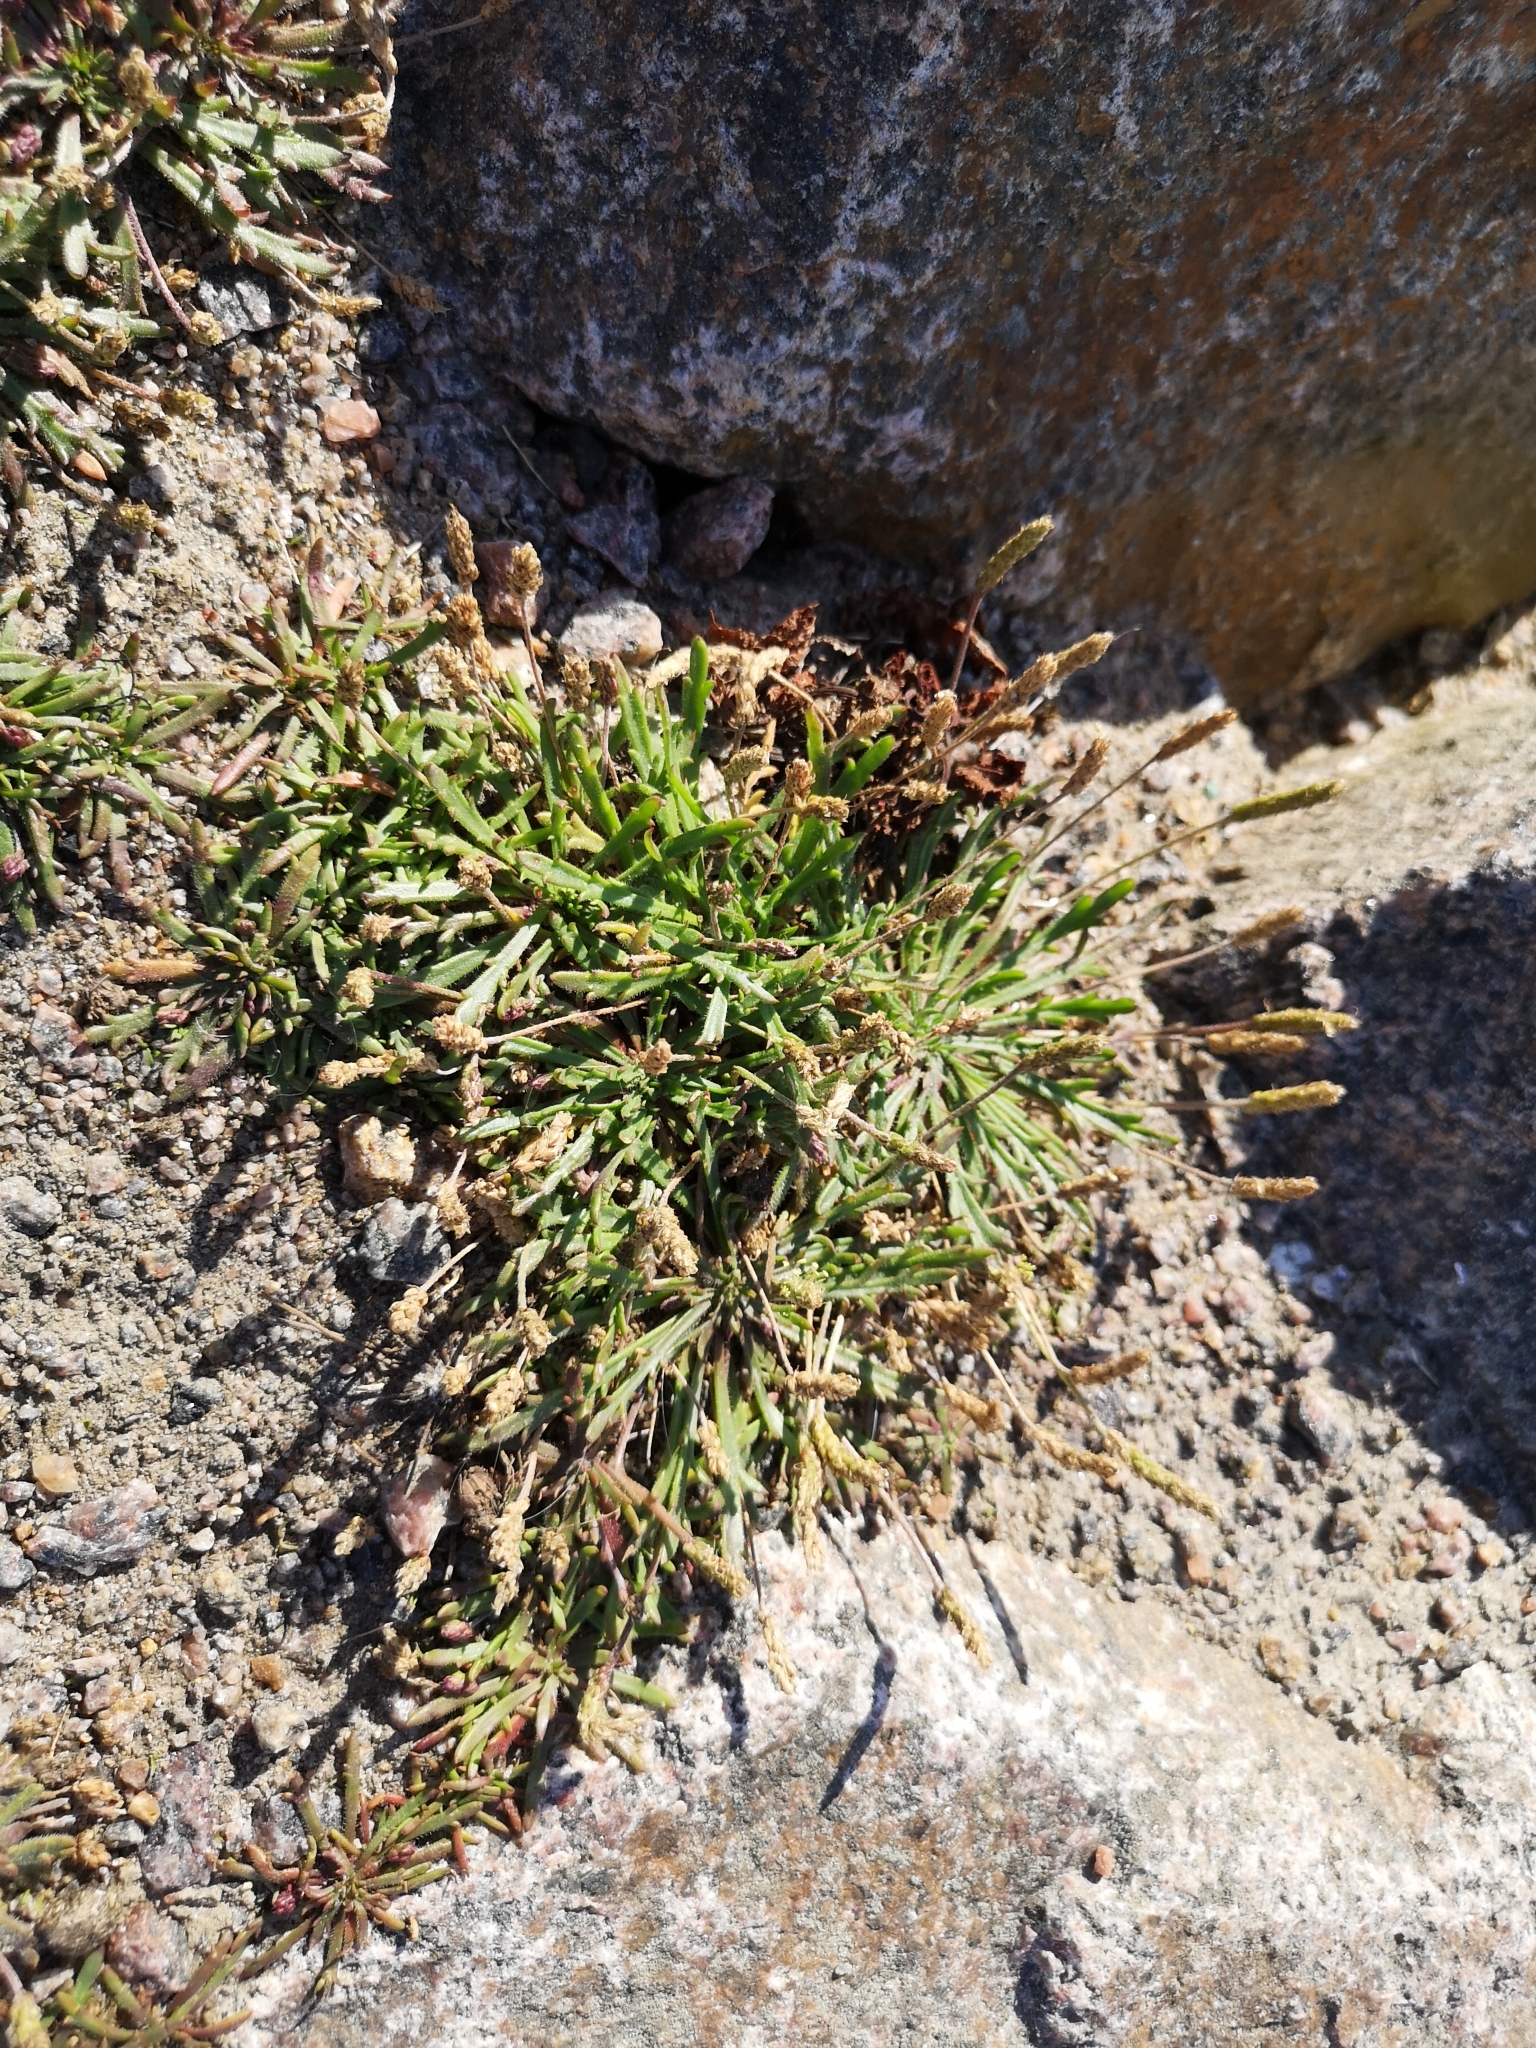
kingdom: Plantae
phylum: Tracheophyta
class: Magnoliopsida
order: Lamiales
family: Plantaginaceae
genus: Plantago
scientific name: Plantago coronopus
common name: Buck's-horn plantain
